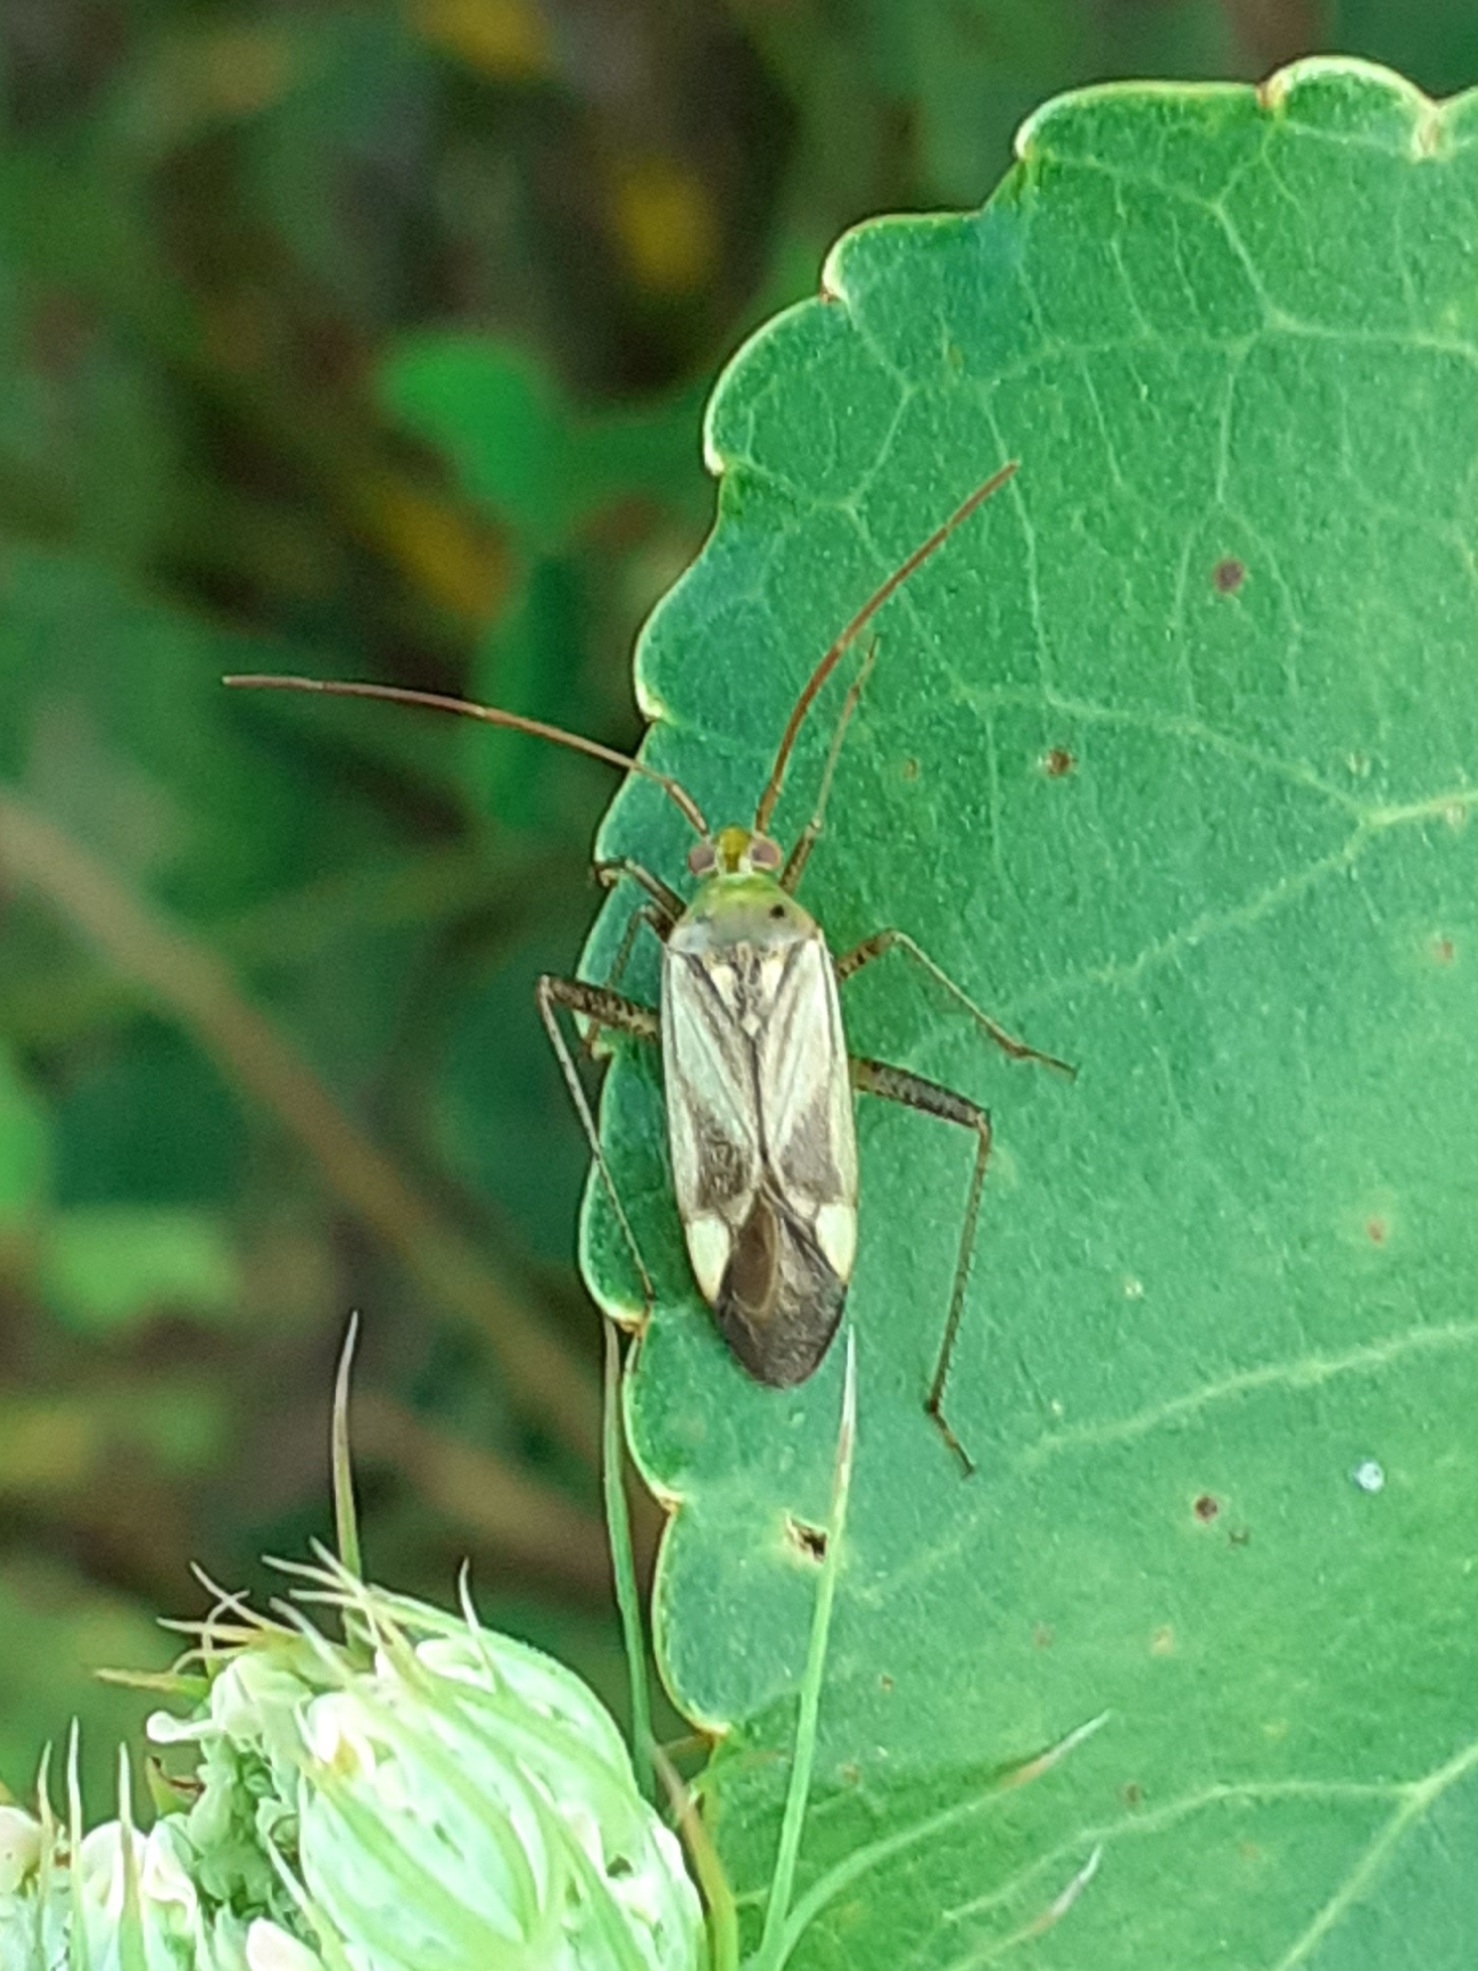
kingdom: Animalia
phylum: Arthropoda
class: Insecta
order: Hemiptera
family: Miridae
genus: Adelphocoris
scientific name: Adelphocoris lineolatus
